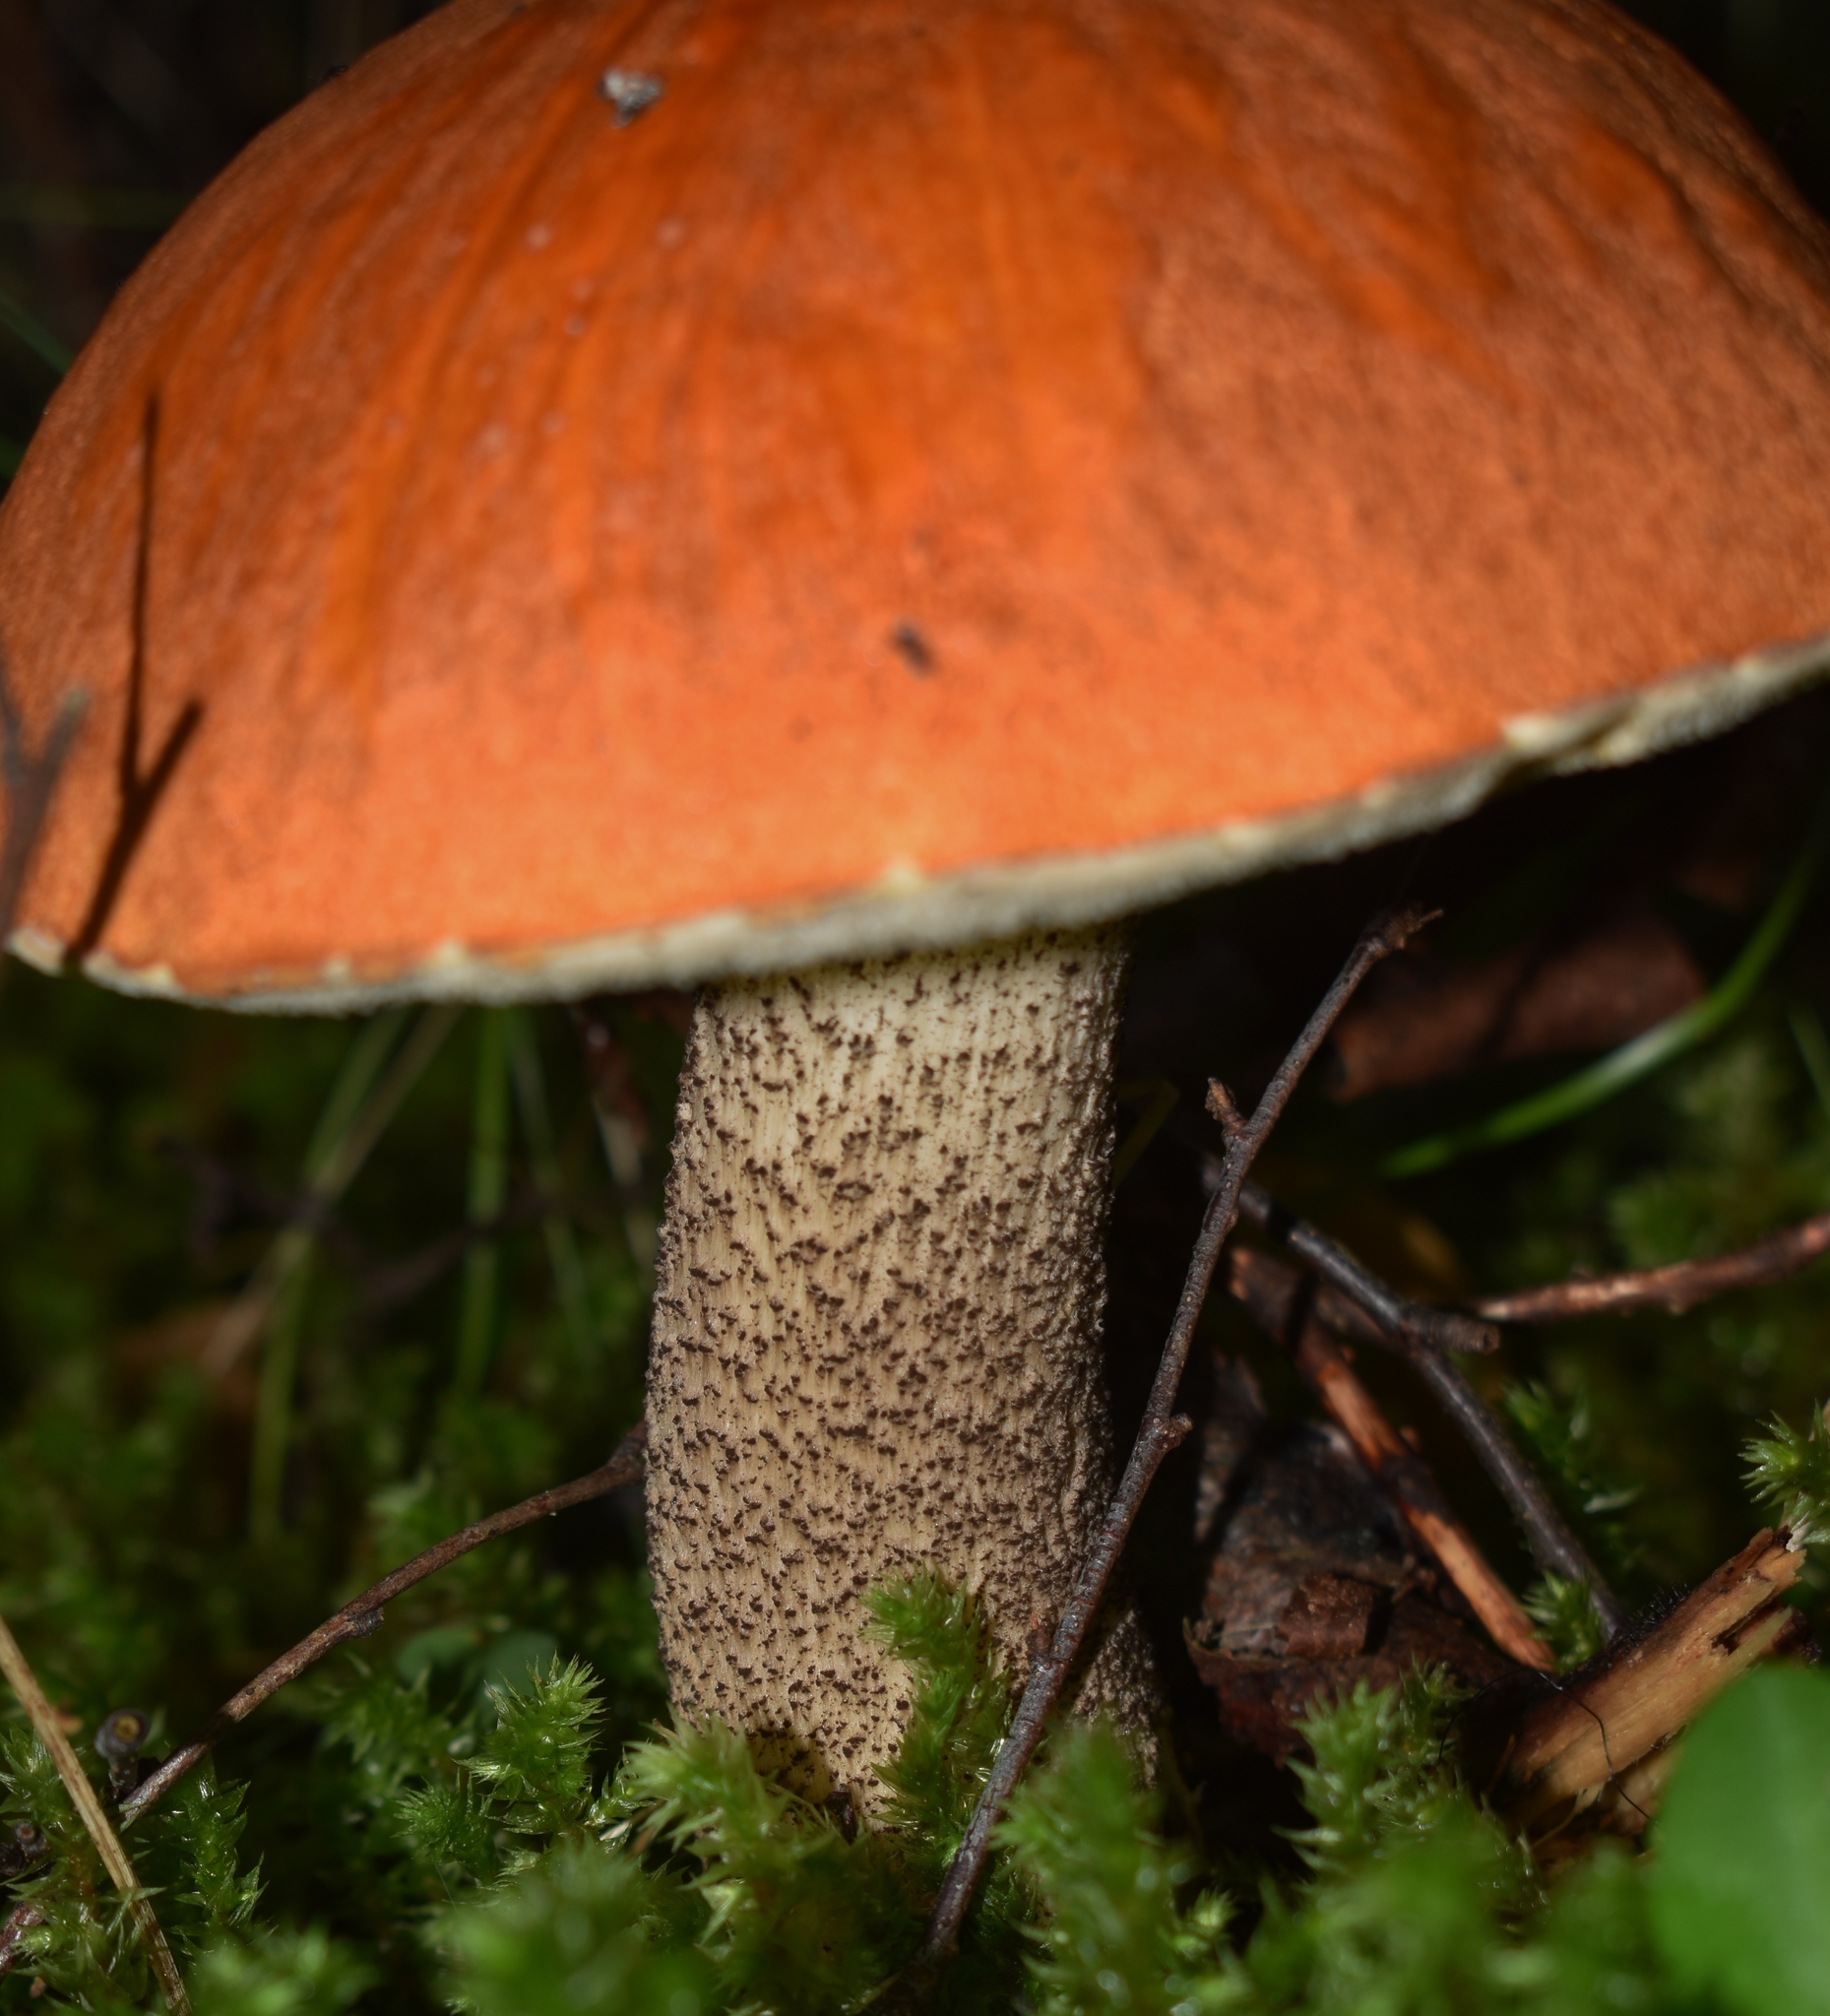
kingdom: Fungi
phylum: Basidiomycota
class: Agaricomycetes
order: Boletales
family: Boletaceae
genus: Leccinum
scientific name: Leccinum versipelle
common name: Orange birch bolete
